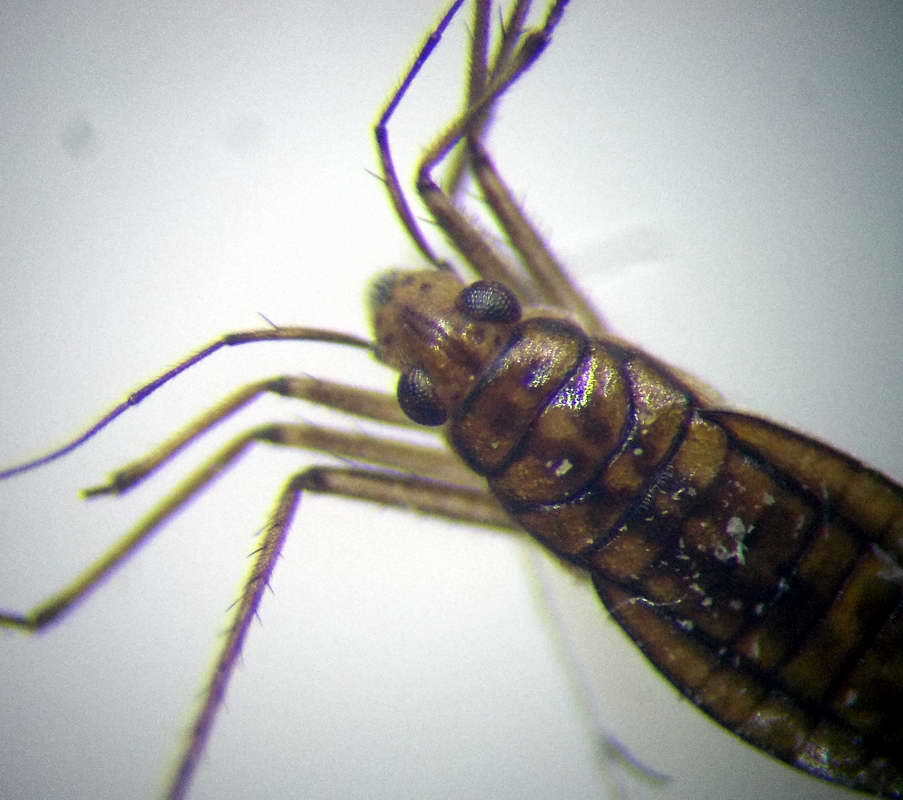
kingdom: Animalia
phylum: Arthropoda
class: Insecta
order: Hemiptera
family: Mesoveliidae
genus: Mesovelia
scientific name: Mesovelia furcata
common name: Pondweed bug
